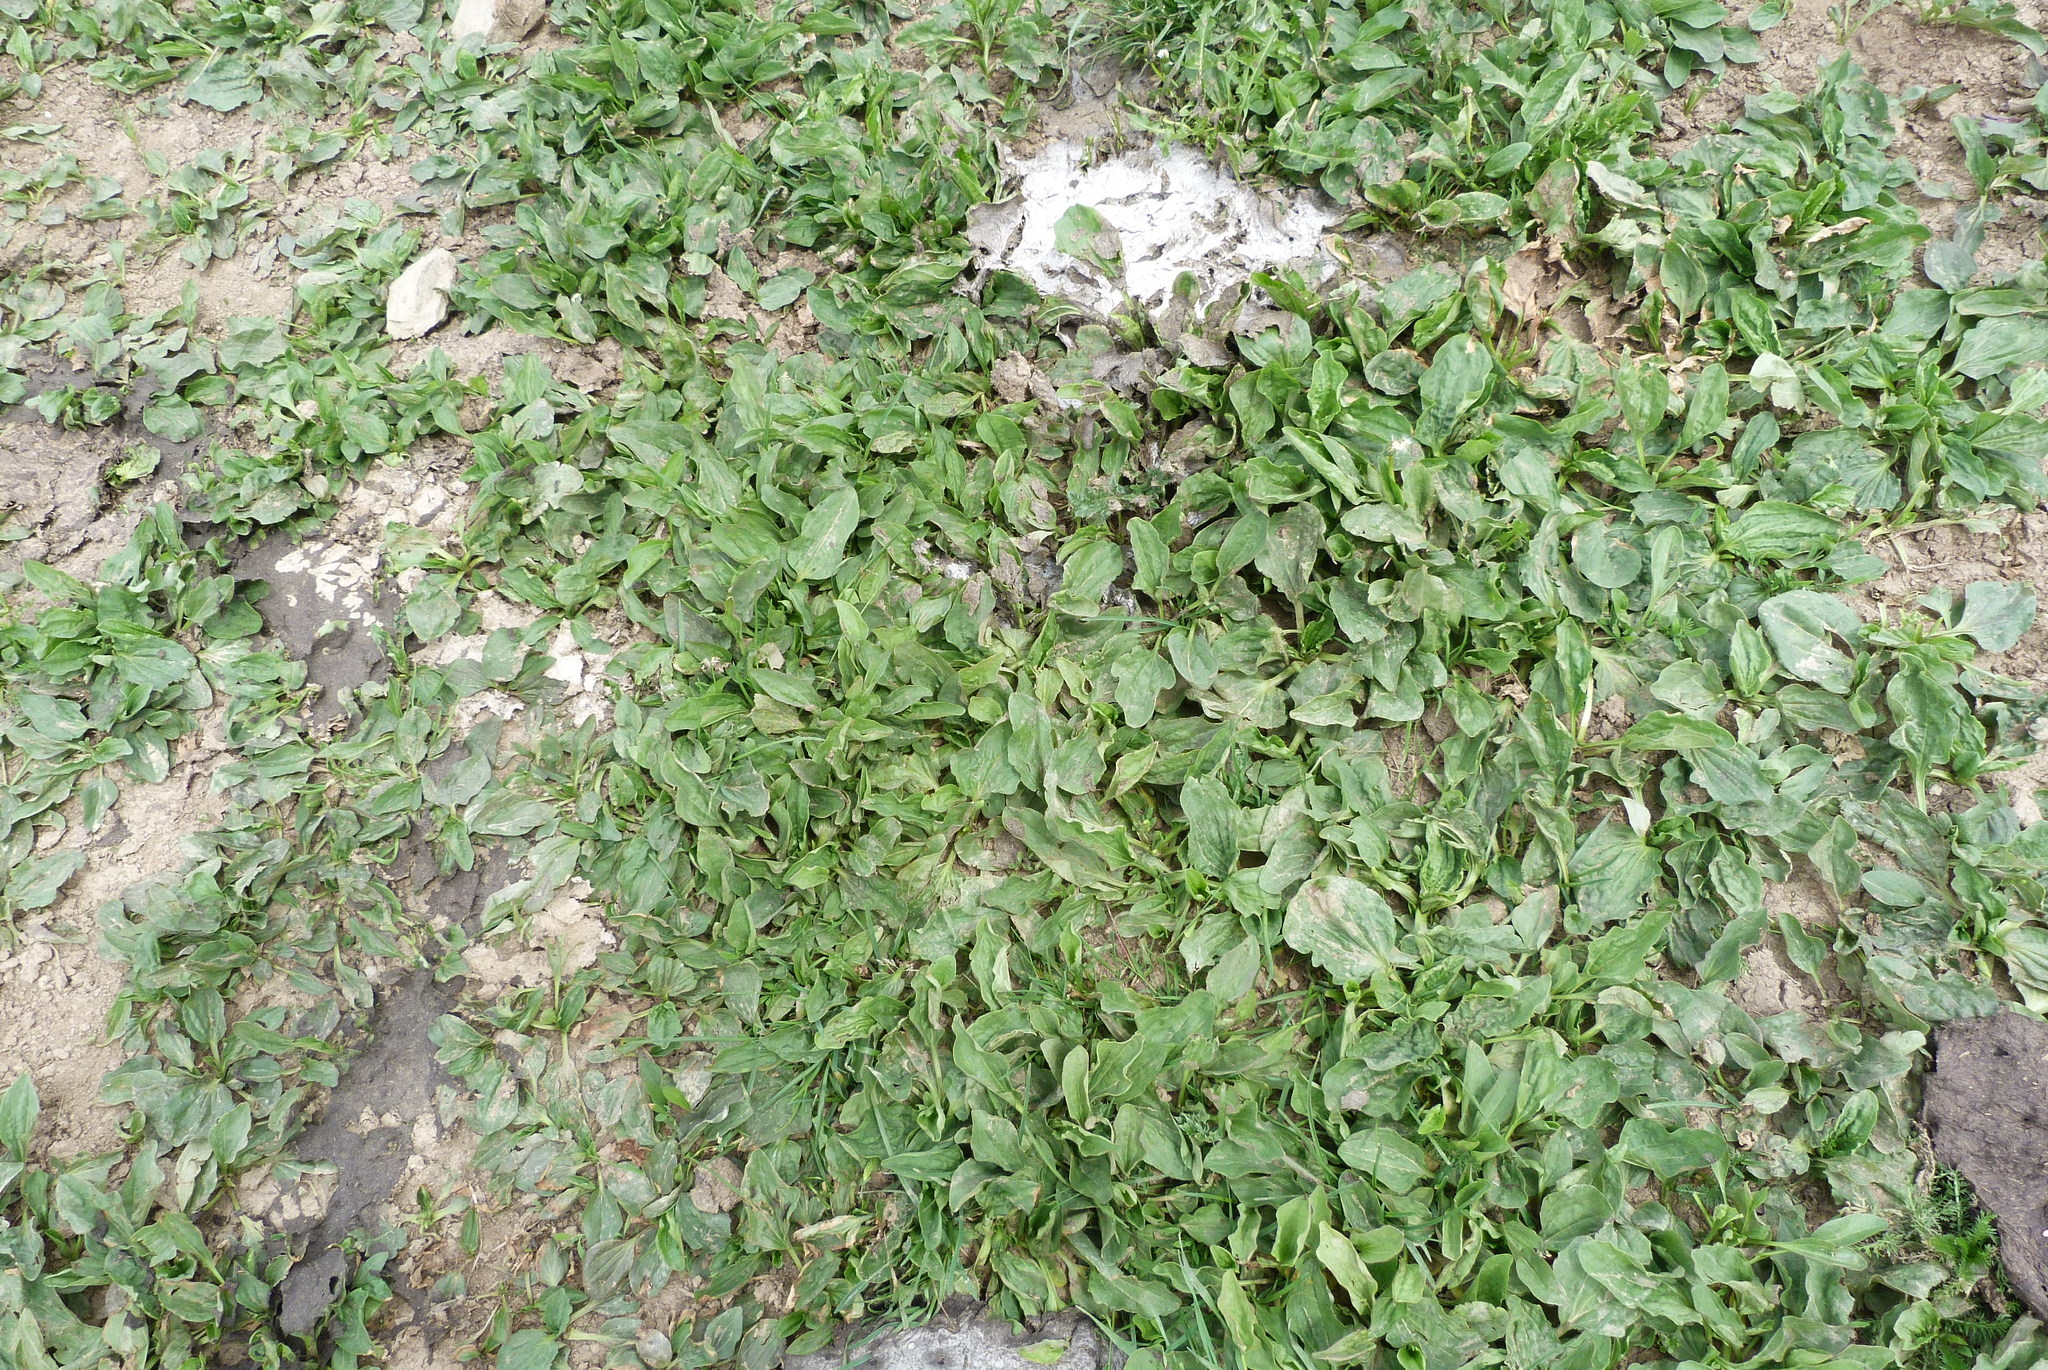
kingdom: Plantae
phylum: Tracheophyta
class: Magnoliopsida
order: Lamiales
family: Plantaginaceae
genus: Plantago
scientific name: Plantago major
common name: Common plantain
